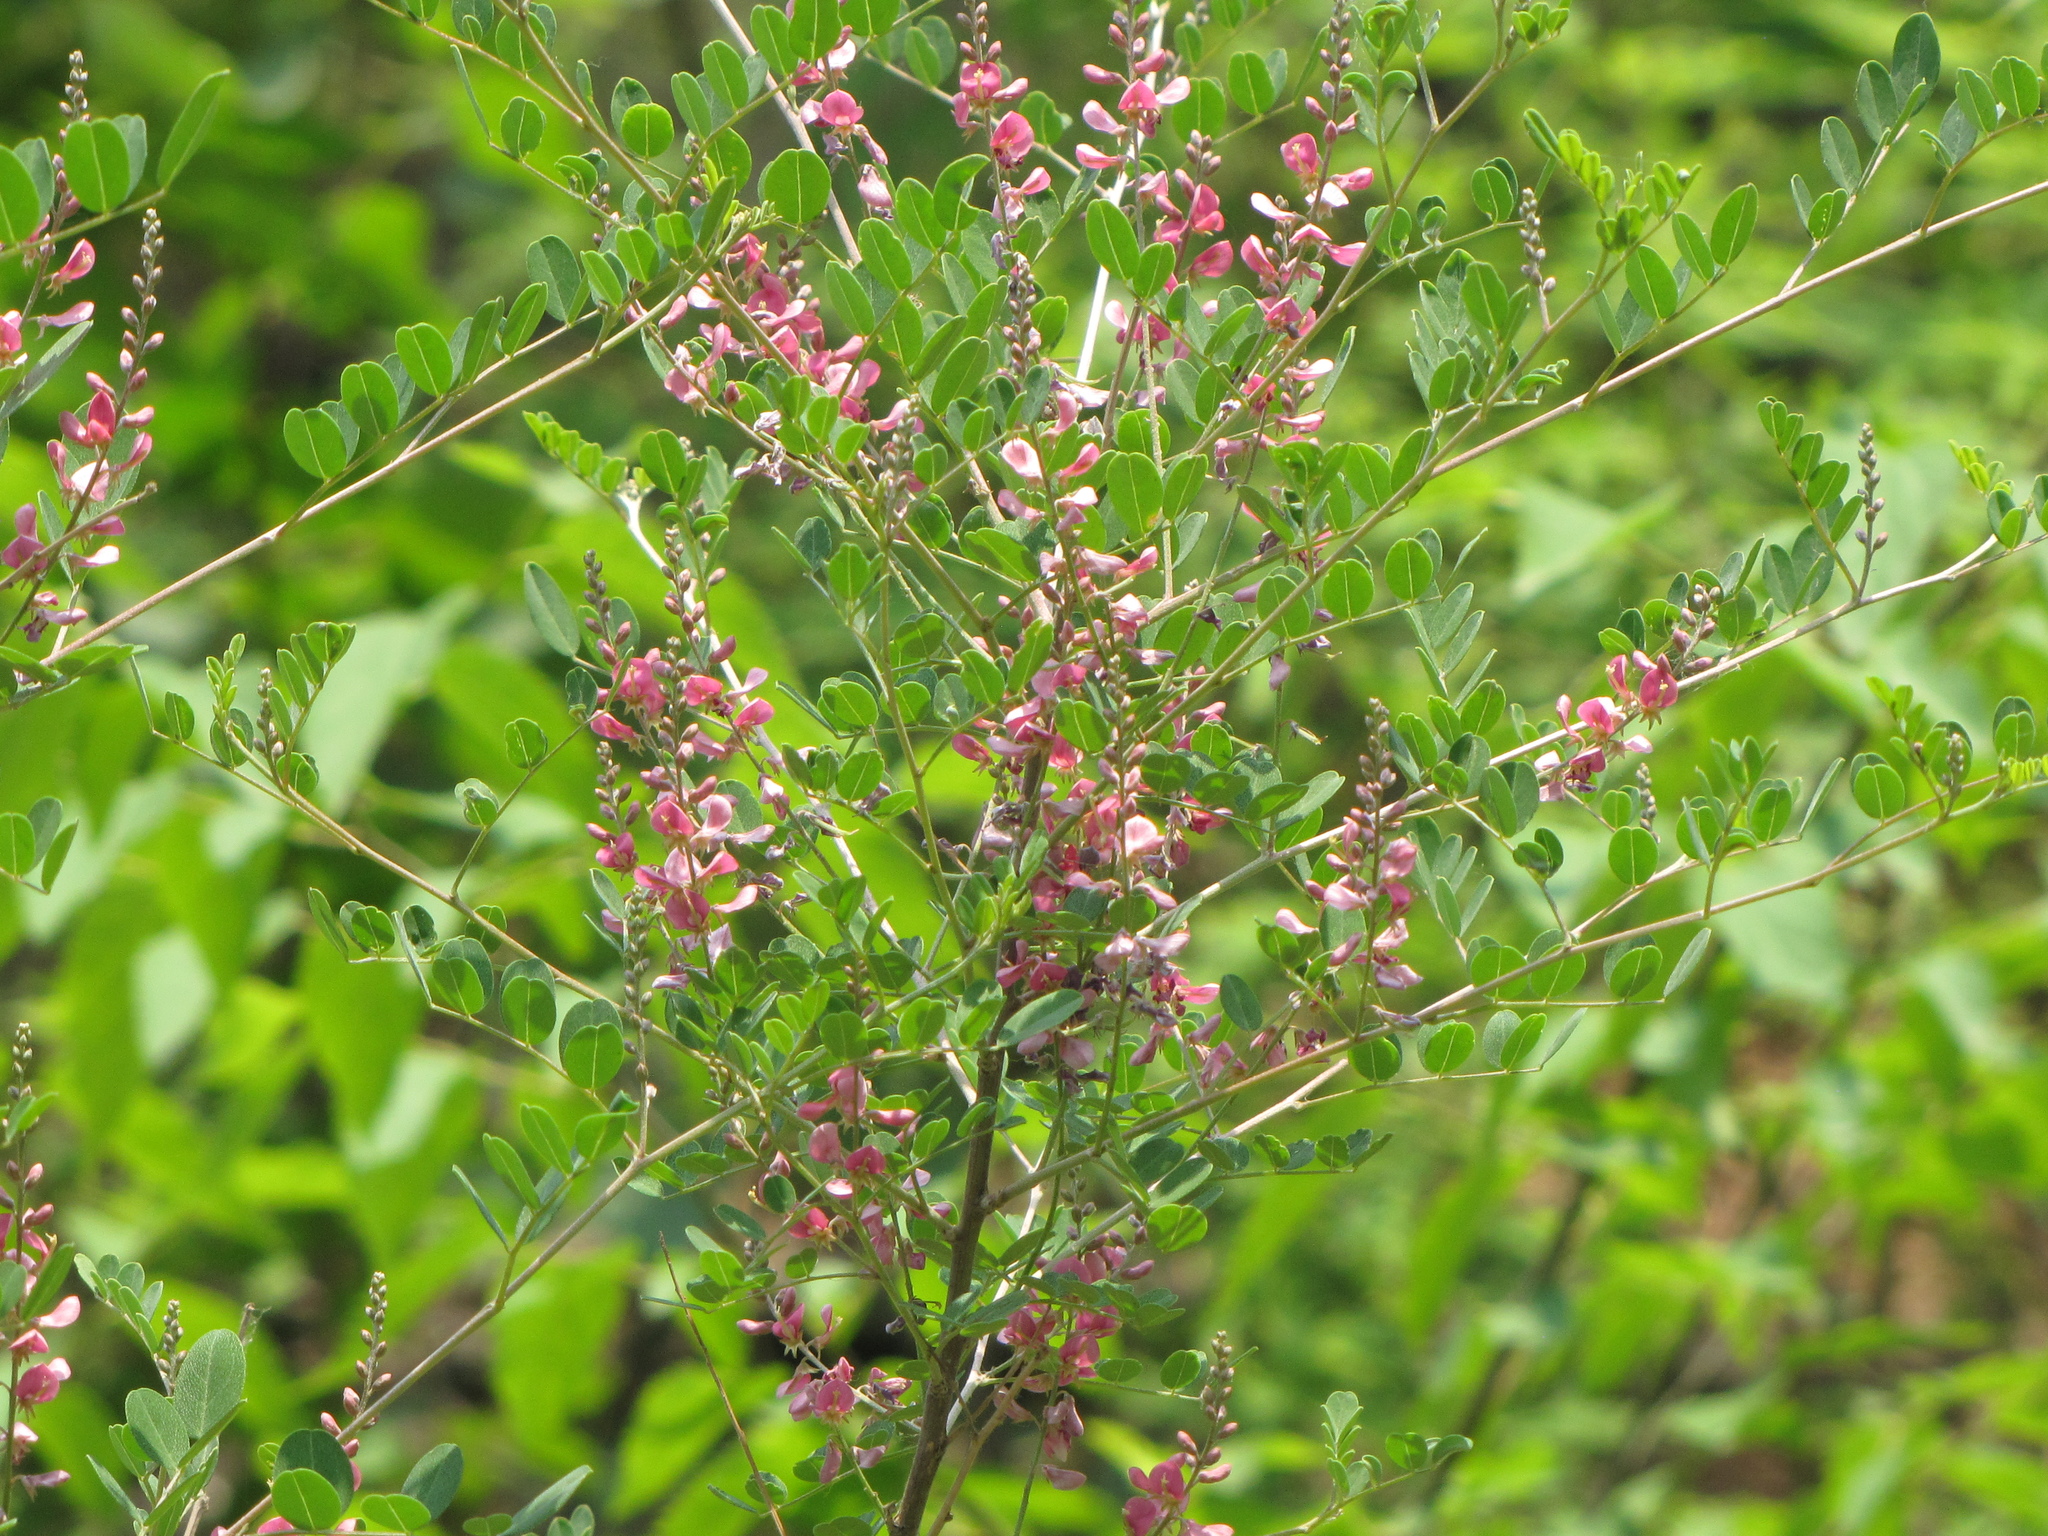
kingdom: Plantae
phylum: Tracheophyta
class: Magnoliopsida
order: Fabales
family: Fabaceae
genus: Indigofera
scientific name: Indigofera bungeana
